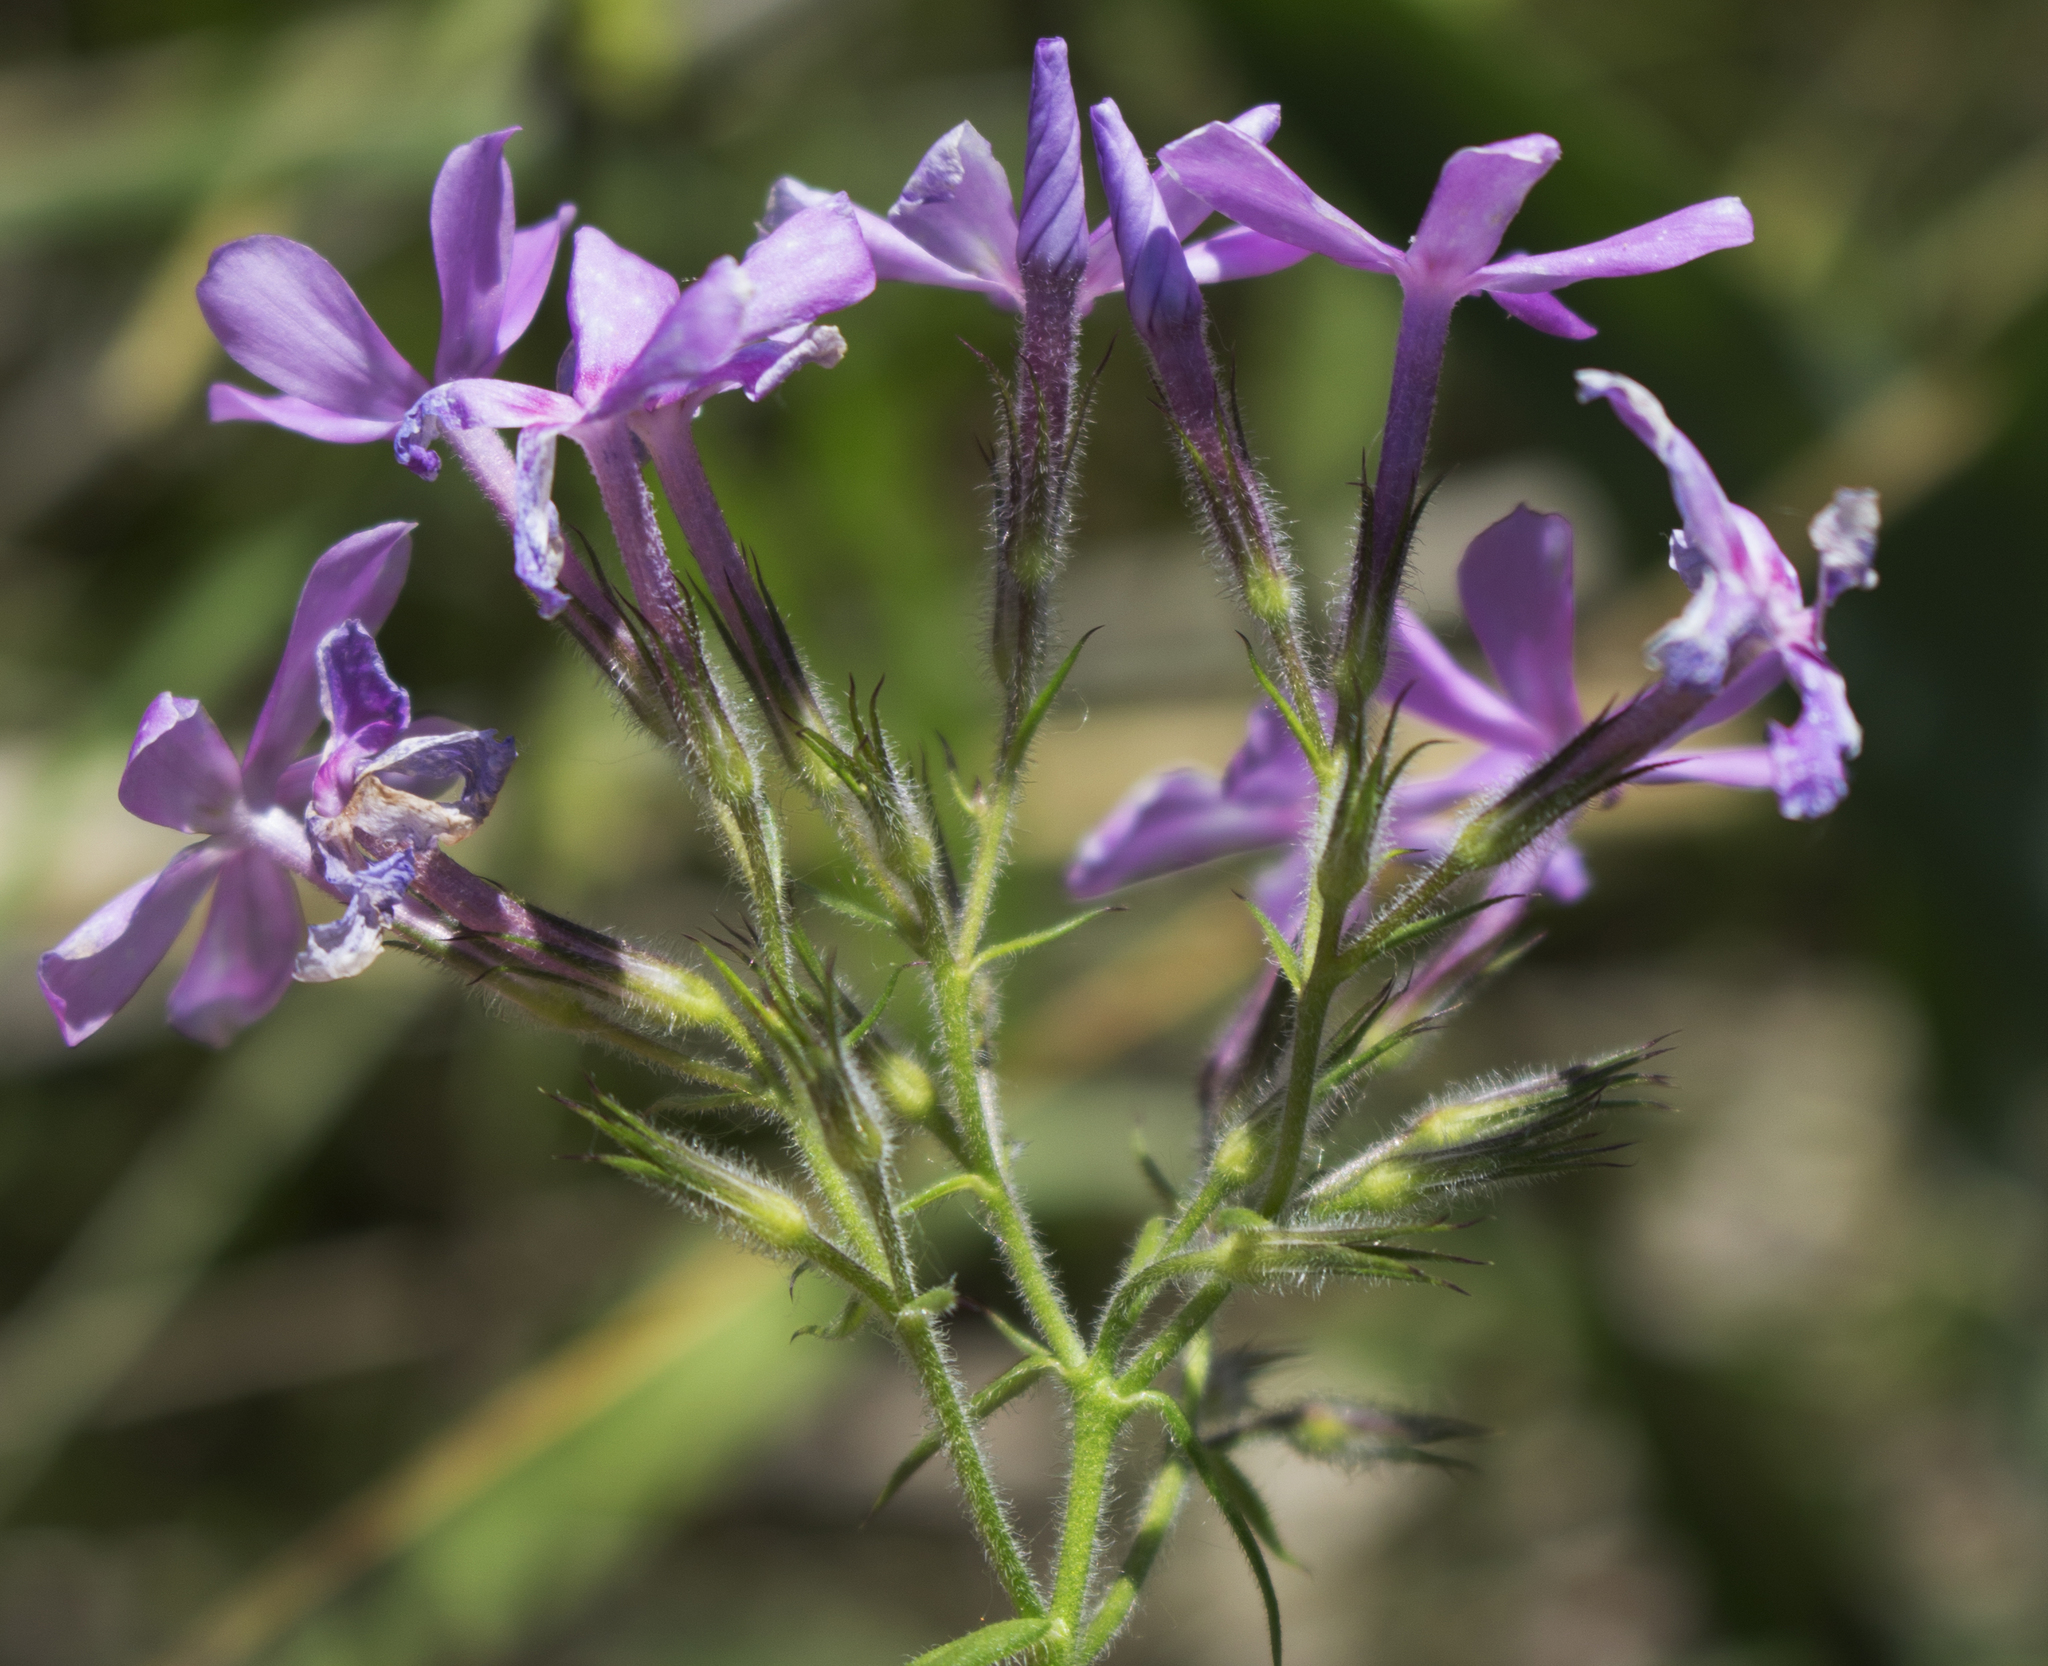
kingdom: Plantae
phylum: Tracheophyta
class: Magnoliopsida
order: Ericales
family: Polemoniaceae
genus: Phlox
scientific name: Phlox pilosa
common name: Prairie phlox
